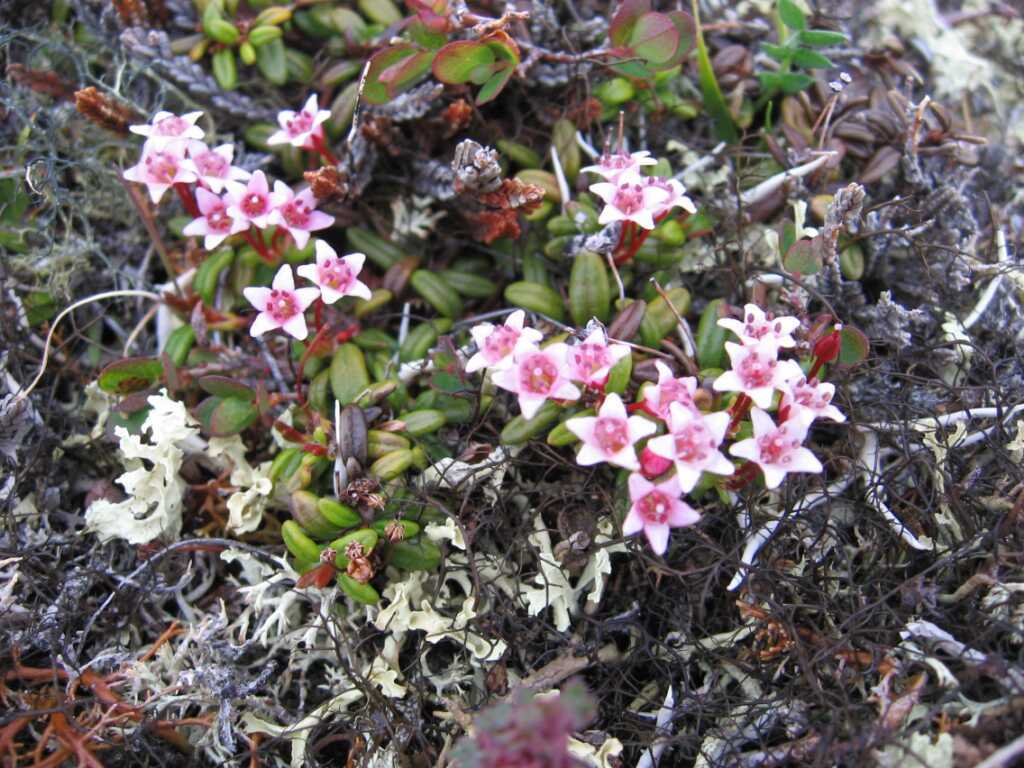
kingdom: Plantae
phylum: Tracheophyta
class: Magnoliopsida
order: Ericales
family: Ericaceae
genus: Kalmia
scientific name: Kalmia procumbens
